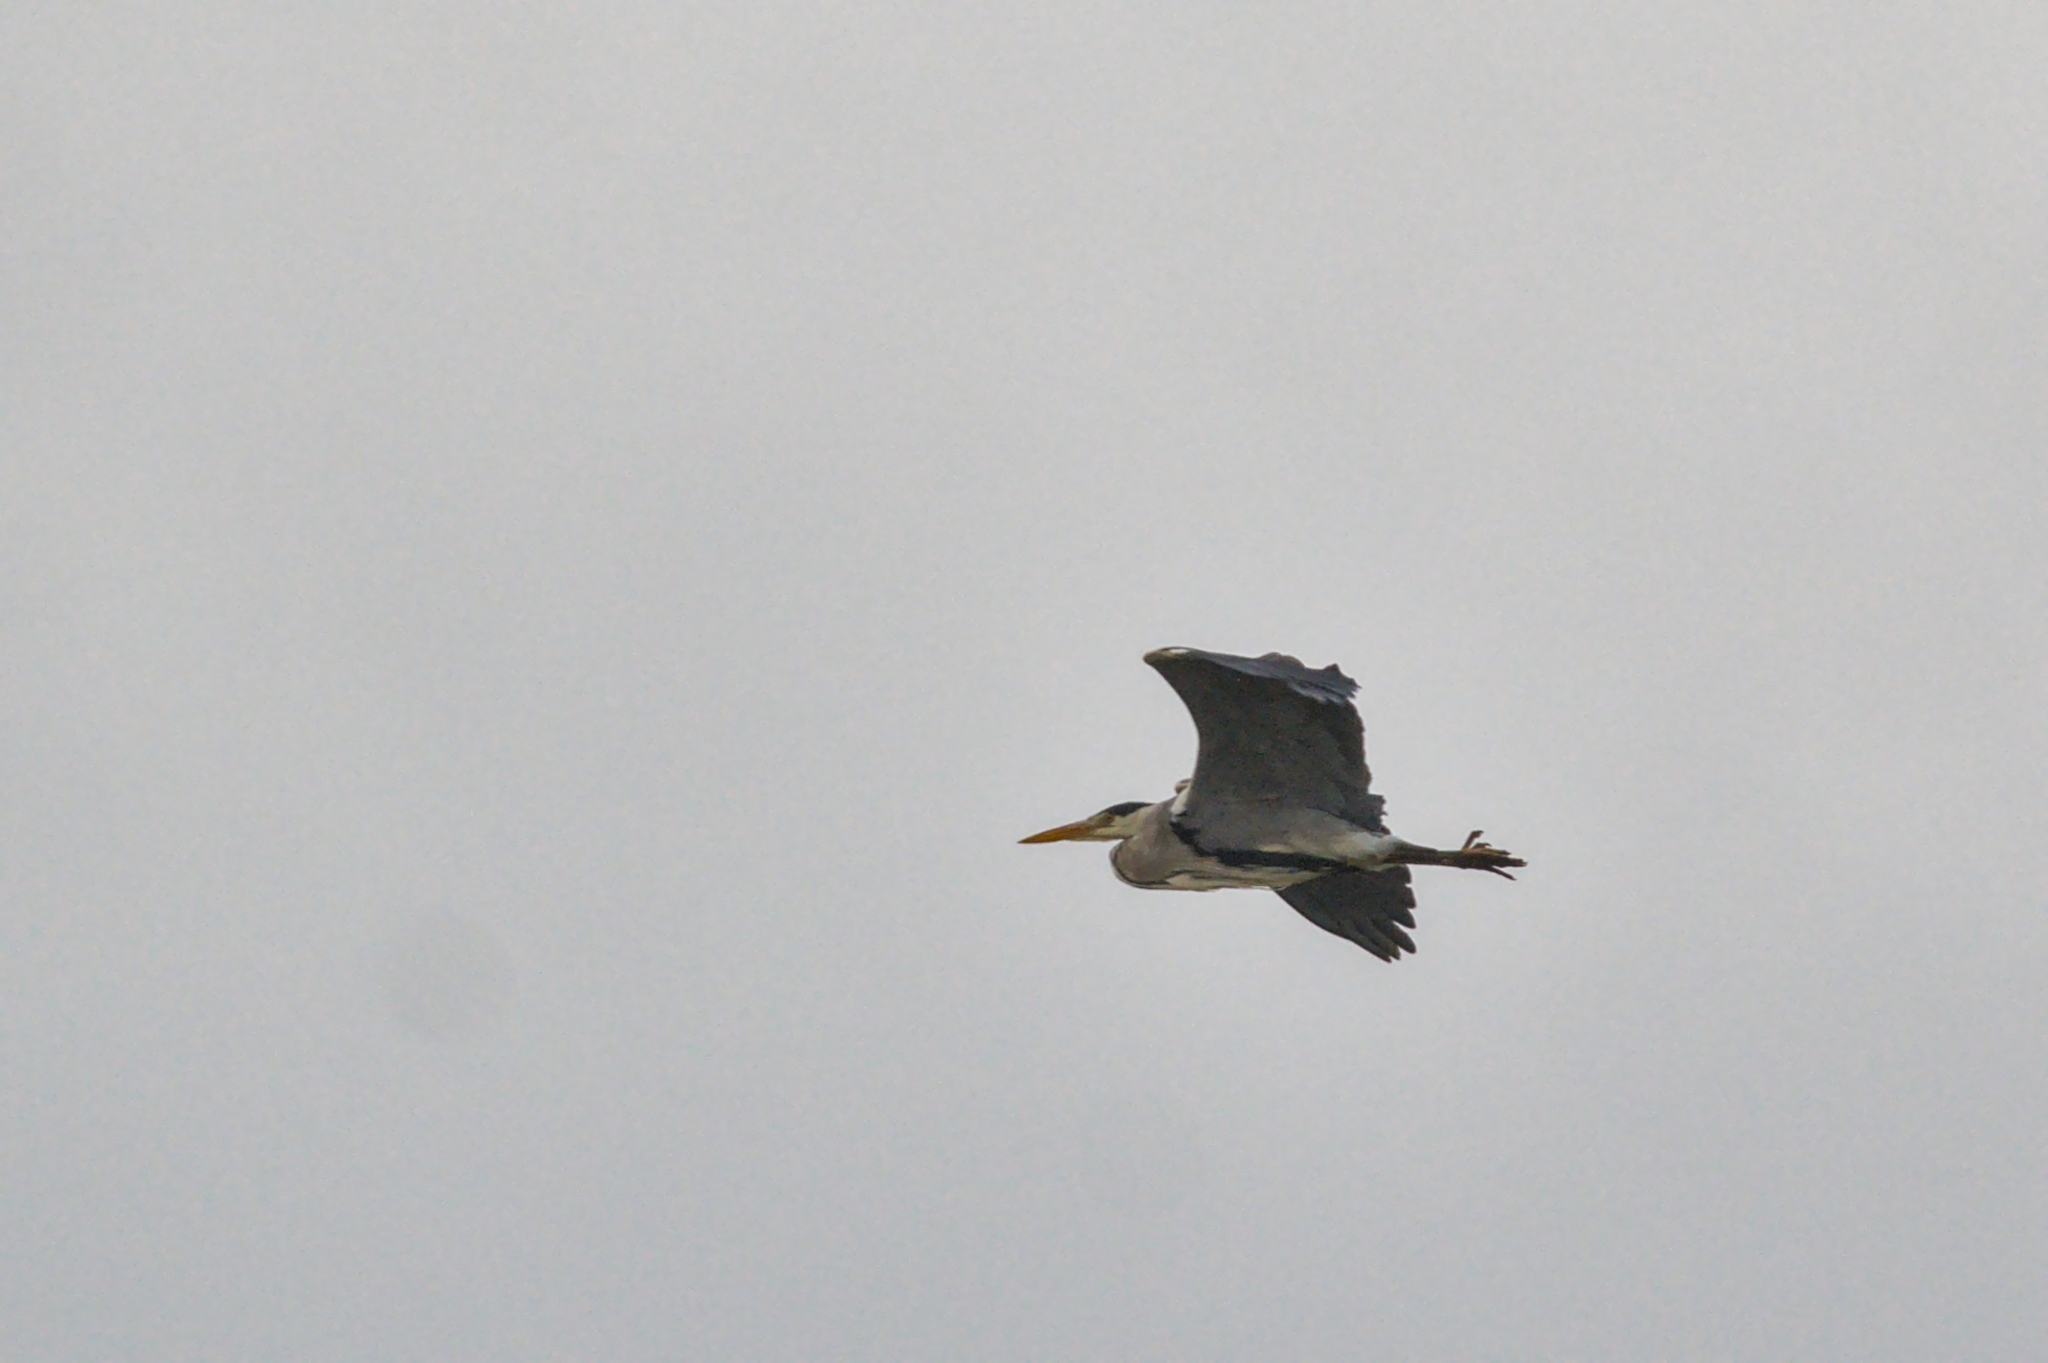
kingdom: Animalia
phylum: Chordata
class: Aves
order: Pelecaniformes
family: Ardeidae
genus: Ardea
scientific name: Ardea cinerea
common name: Grey heron
